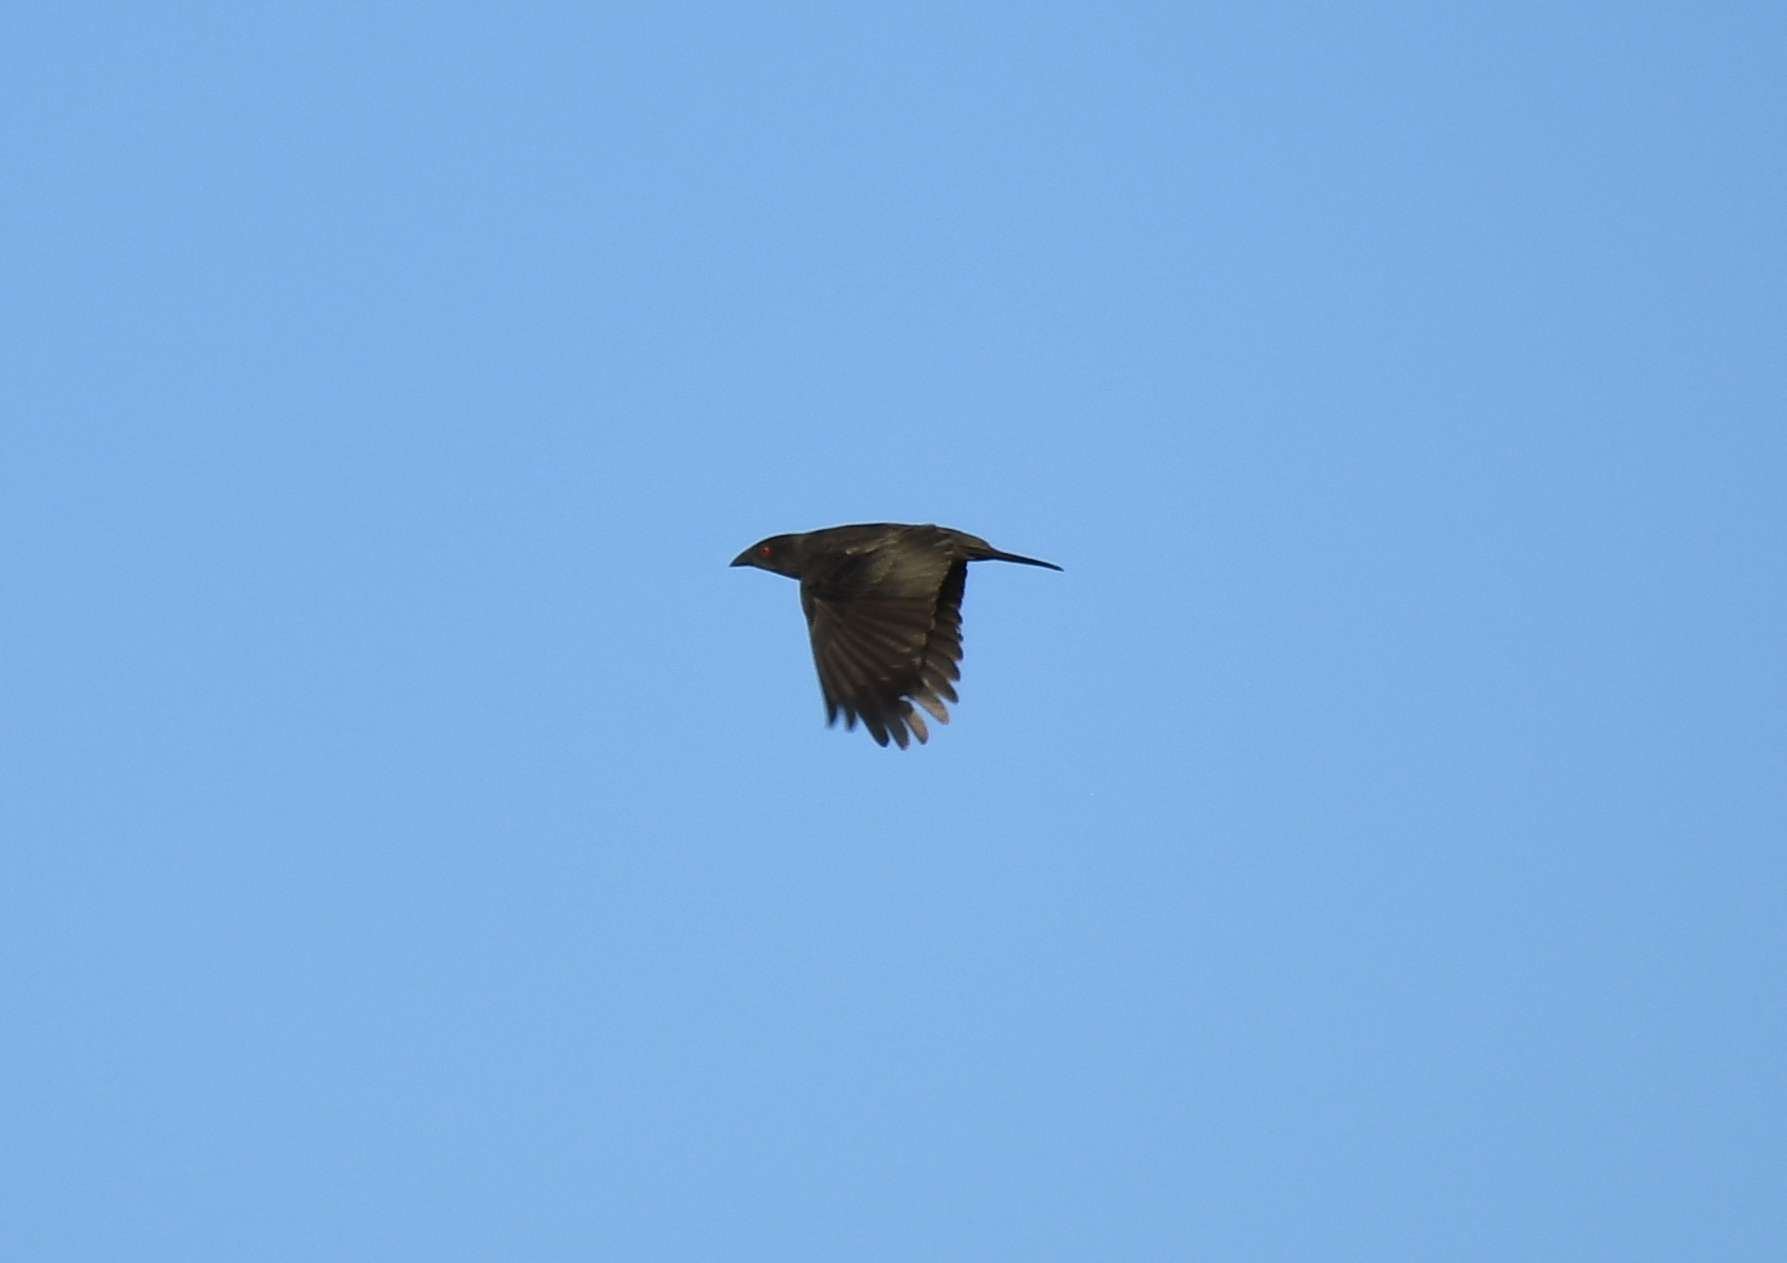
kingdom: Animalia
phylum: Chordata
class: Aves
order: Passeriformes
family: Icteridae
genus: Molothrus
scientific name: Molothrus aeneus
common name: Bronzed cowbird
